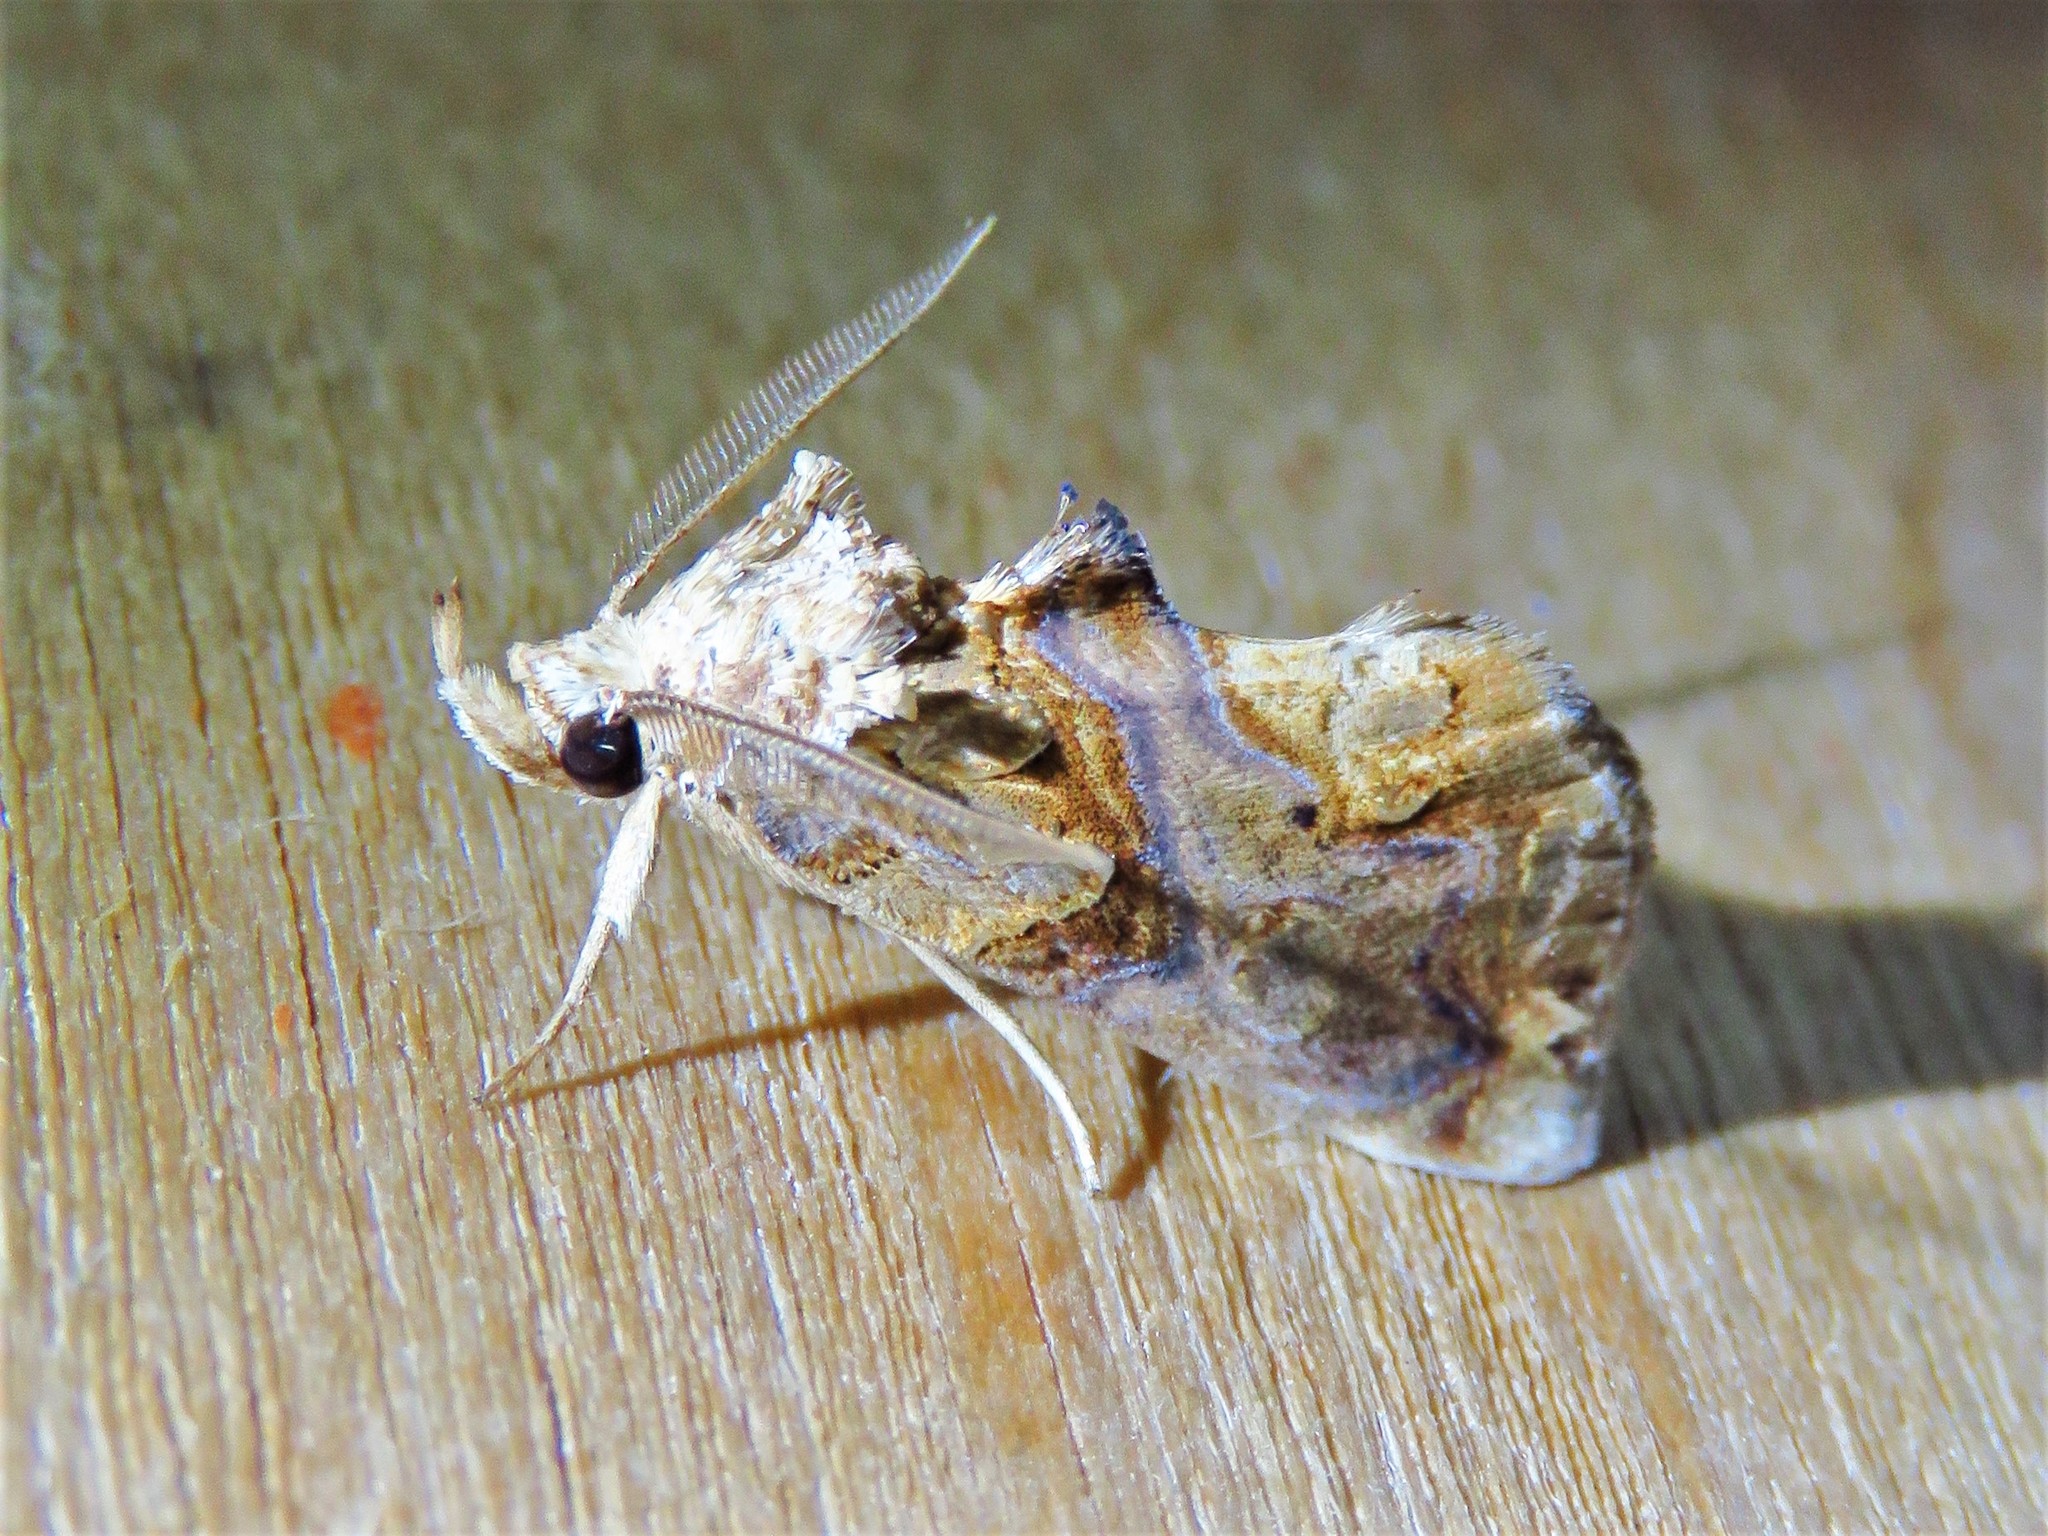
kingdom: Animalia
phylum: Arthropoda
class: Insecta
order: Lepidoptera
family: Erebidae
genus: Plusiodonta
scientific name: Plusiodonta compressipalpis
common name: Moonseed moth
